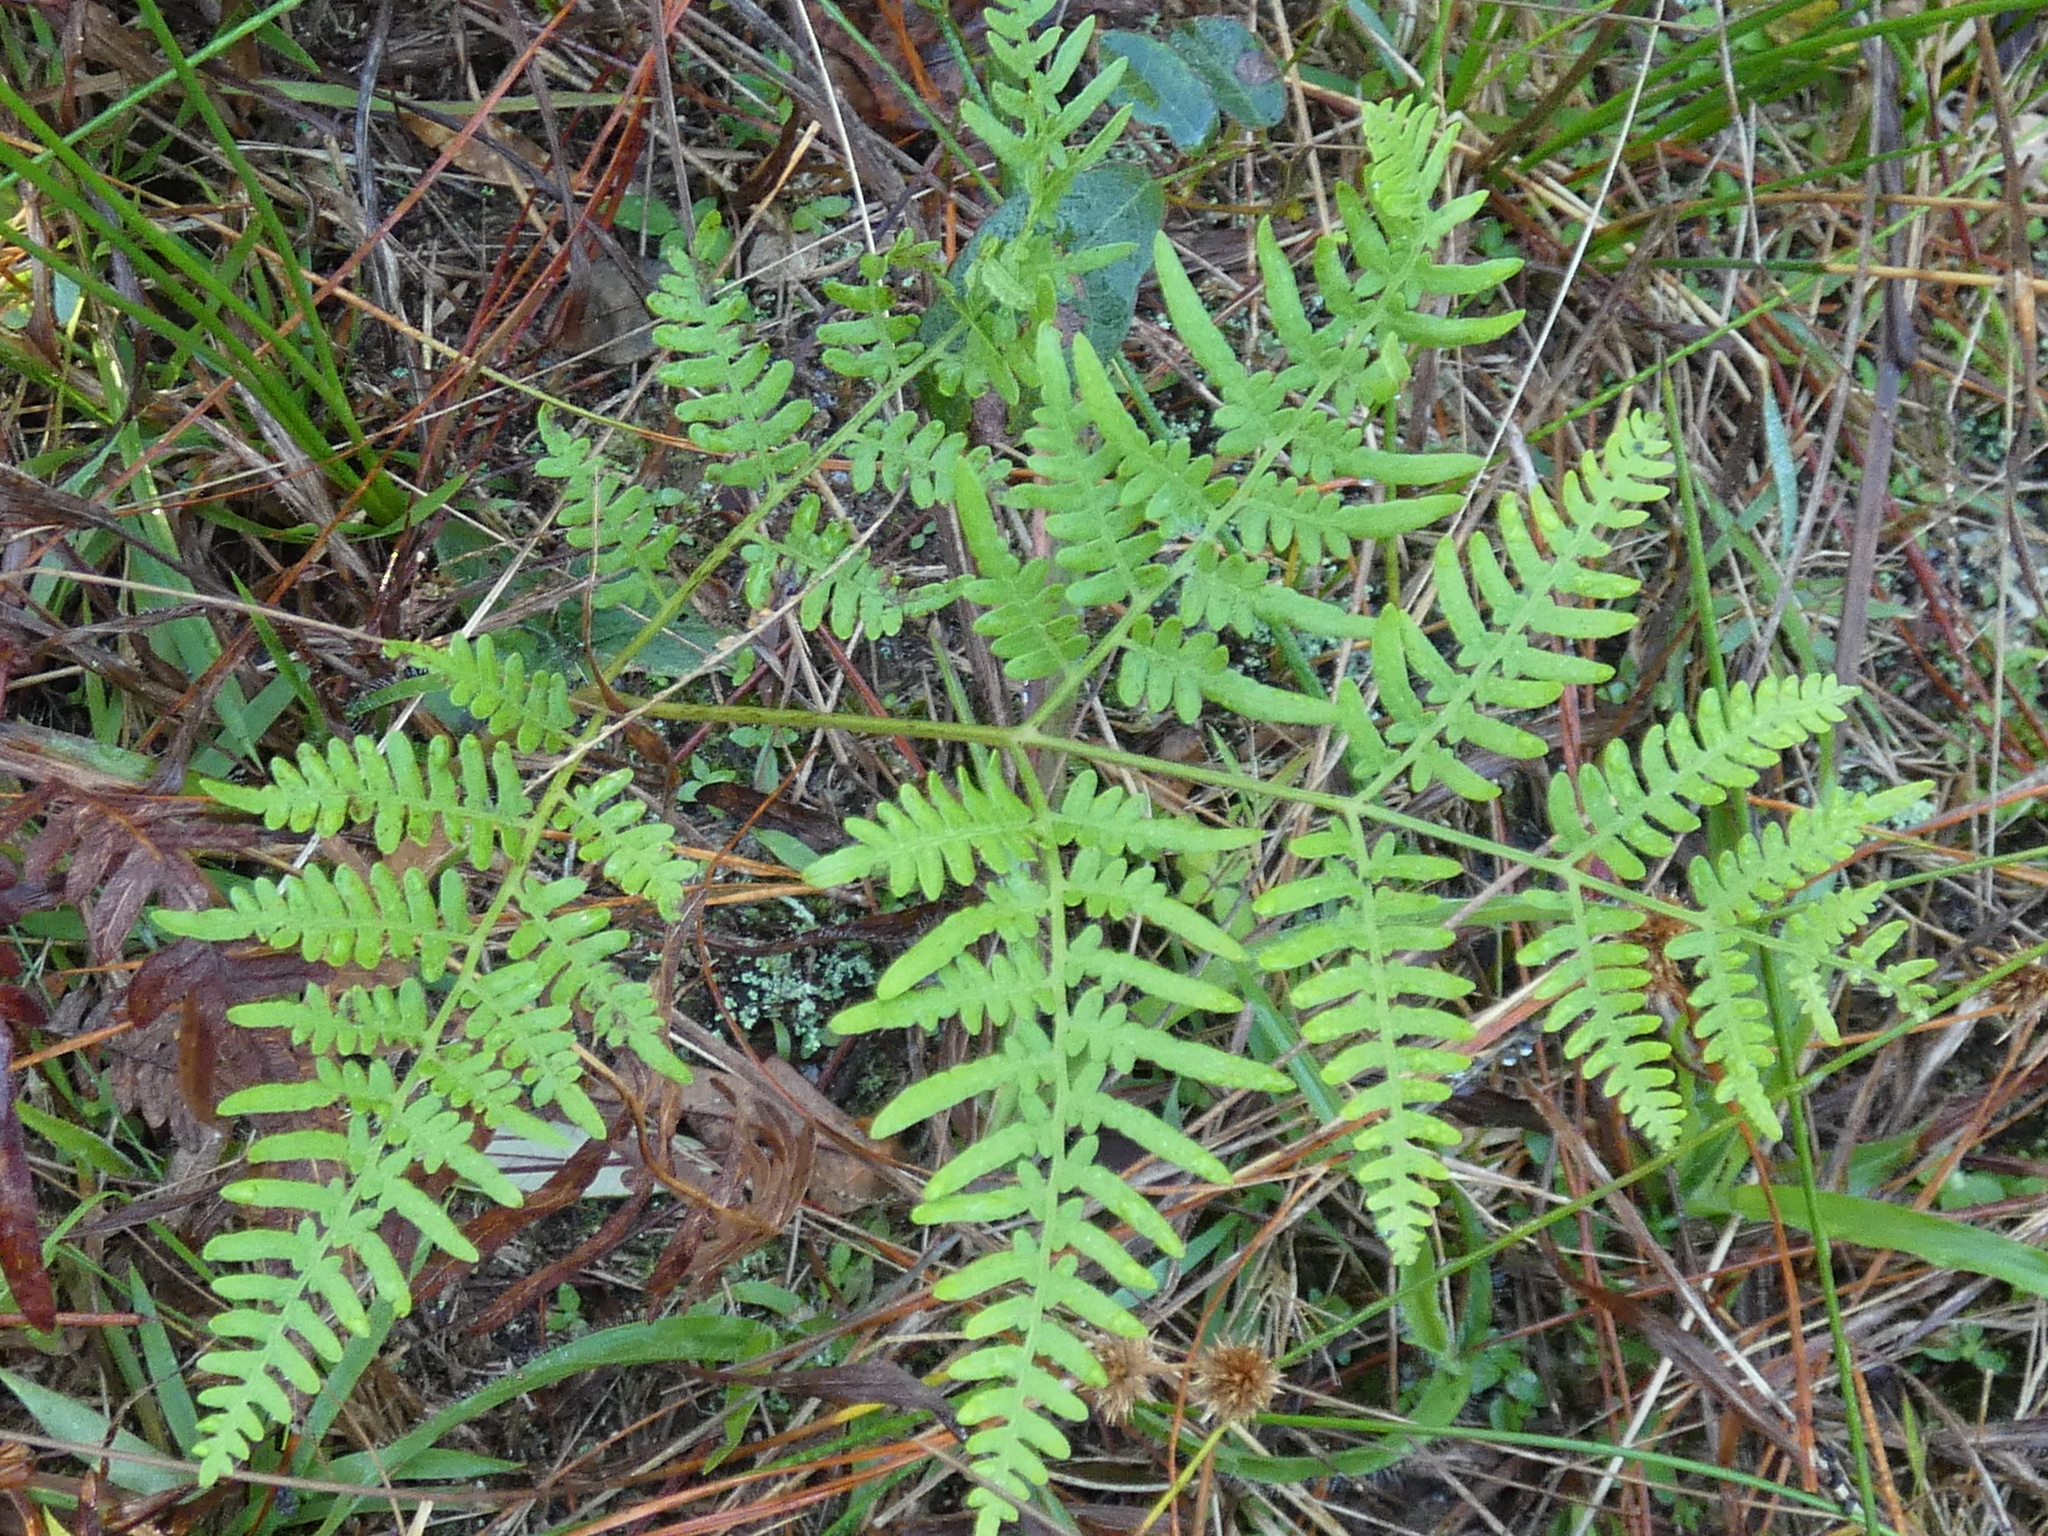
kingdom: Plantae
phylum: Tracheophyta
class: Polypodiopsida
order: Polypodiales
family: Dennstaedtiaceae
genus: Pteridium
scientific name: Pteridium
